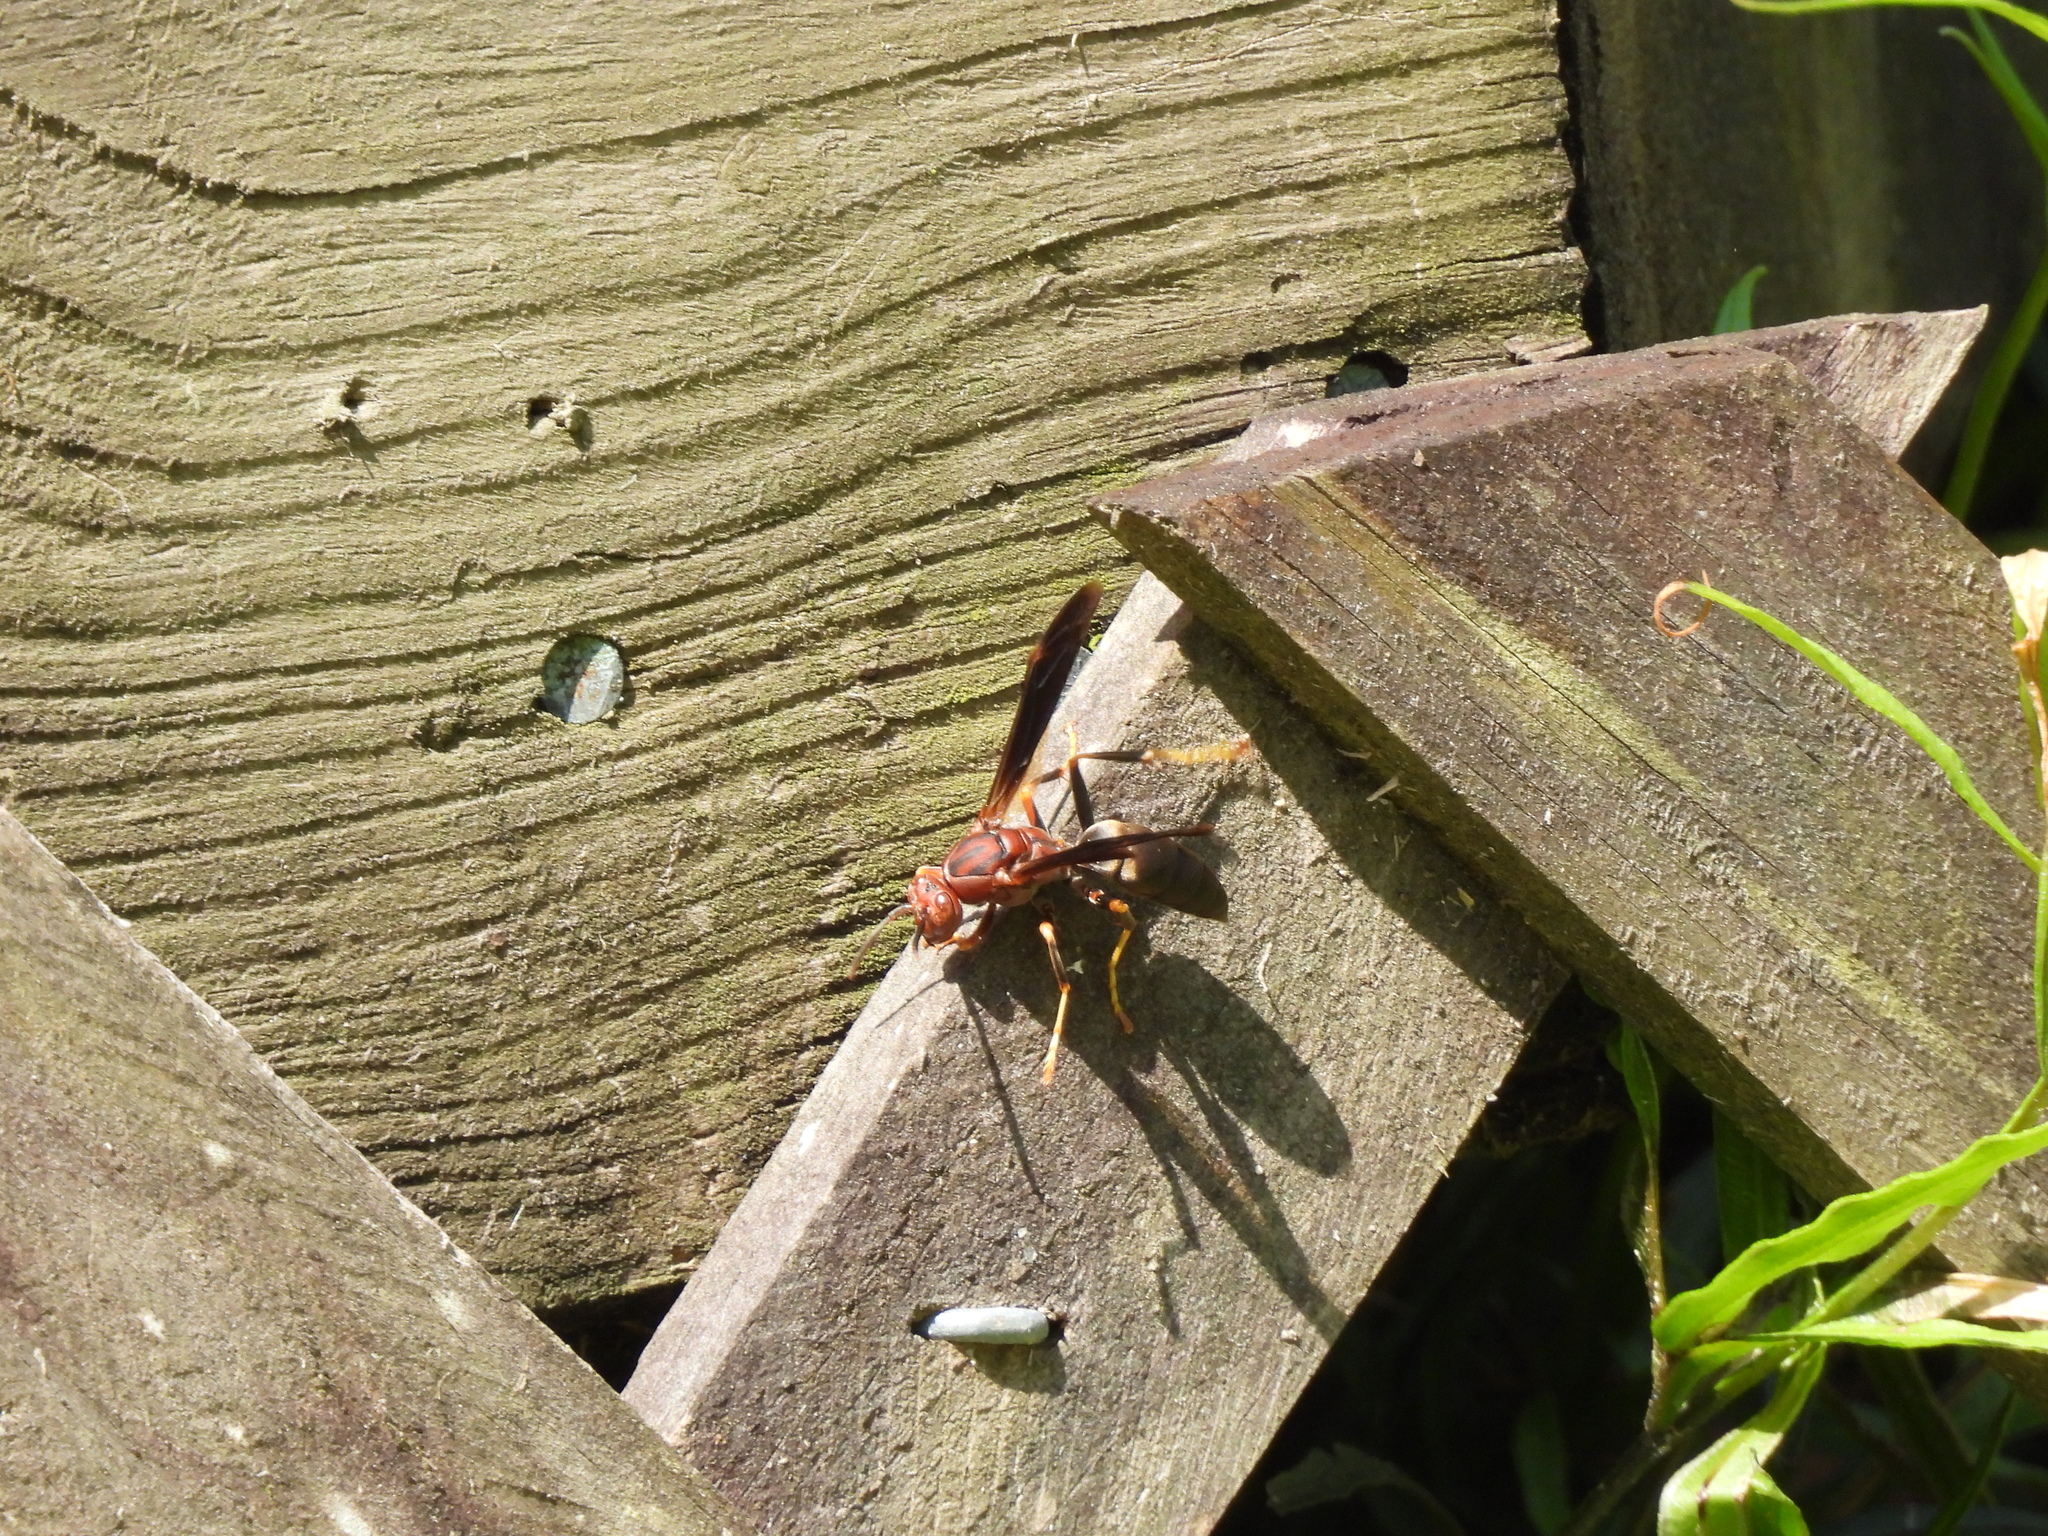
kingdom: Animalia
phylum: Arthropoda
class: Insecta
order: Hymenoptera
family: Eumenidae
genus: Polistes
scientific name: Polistes metricus
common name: Metric paper wasp
